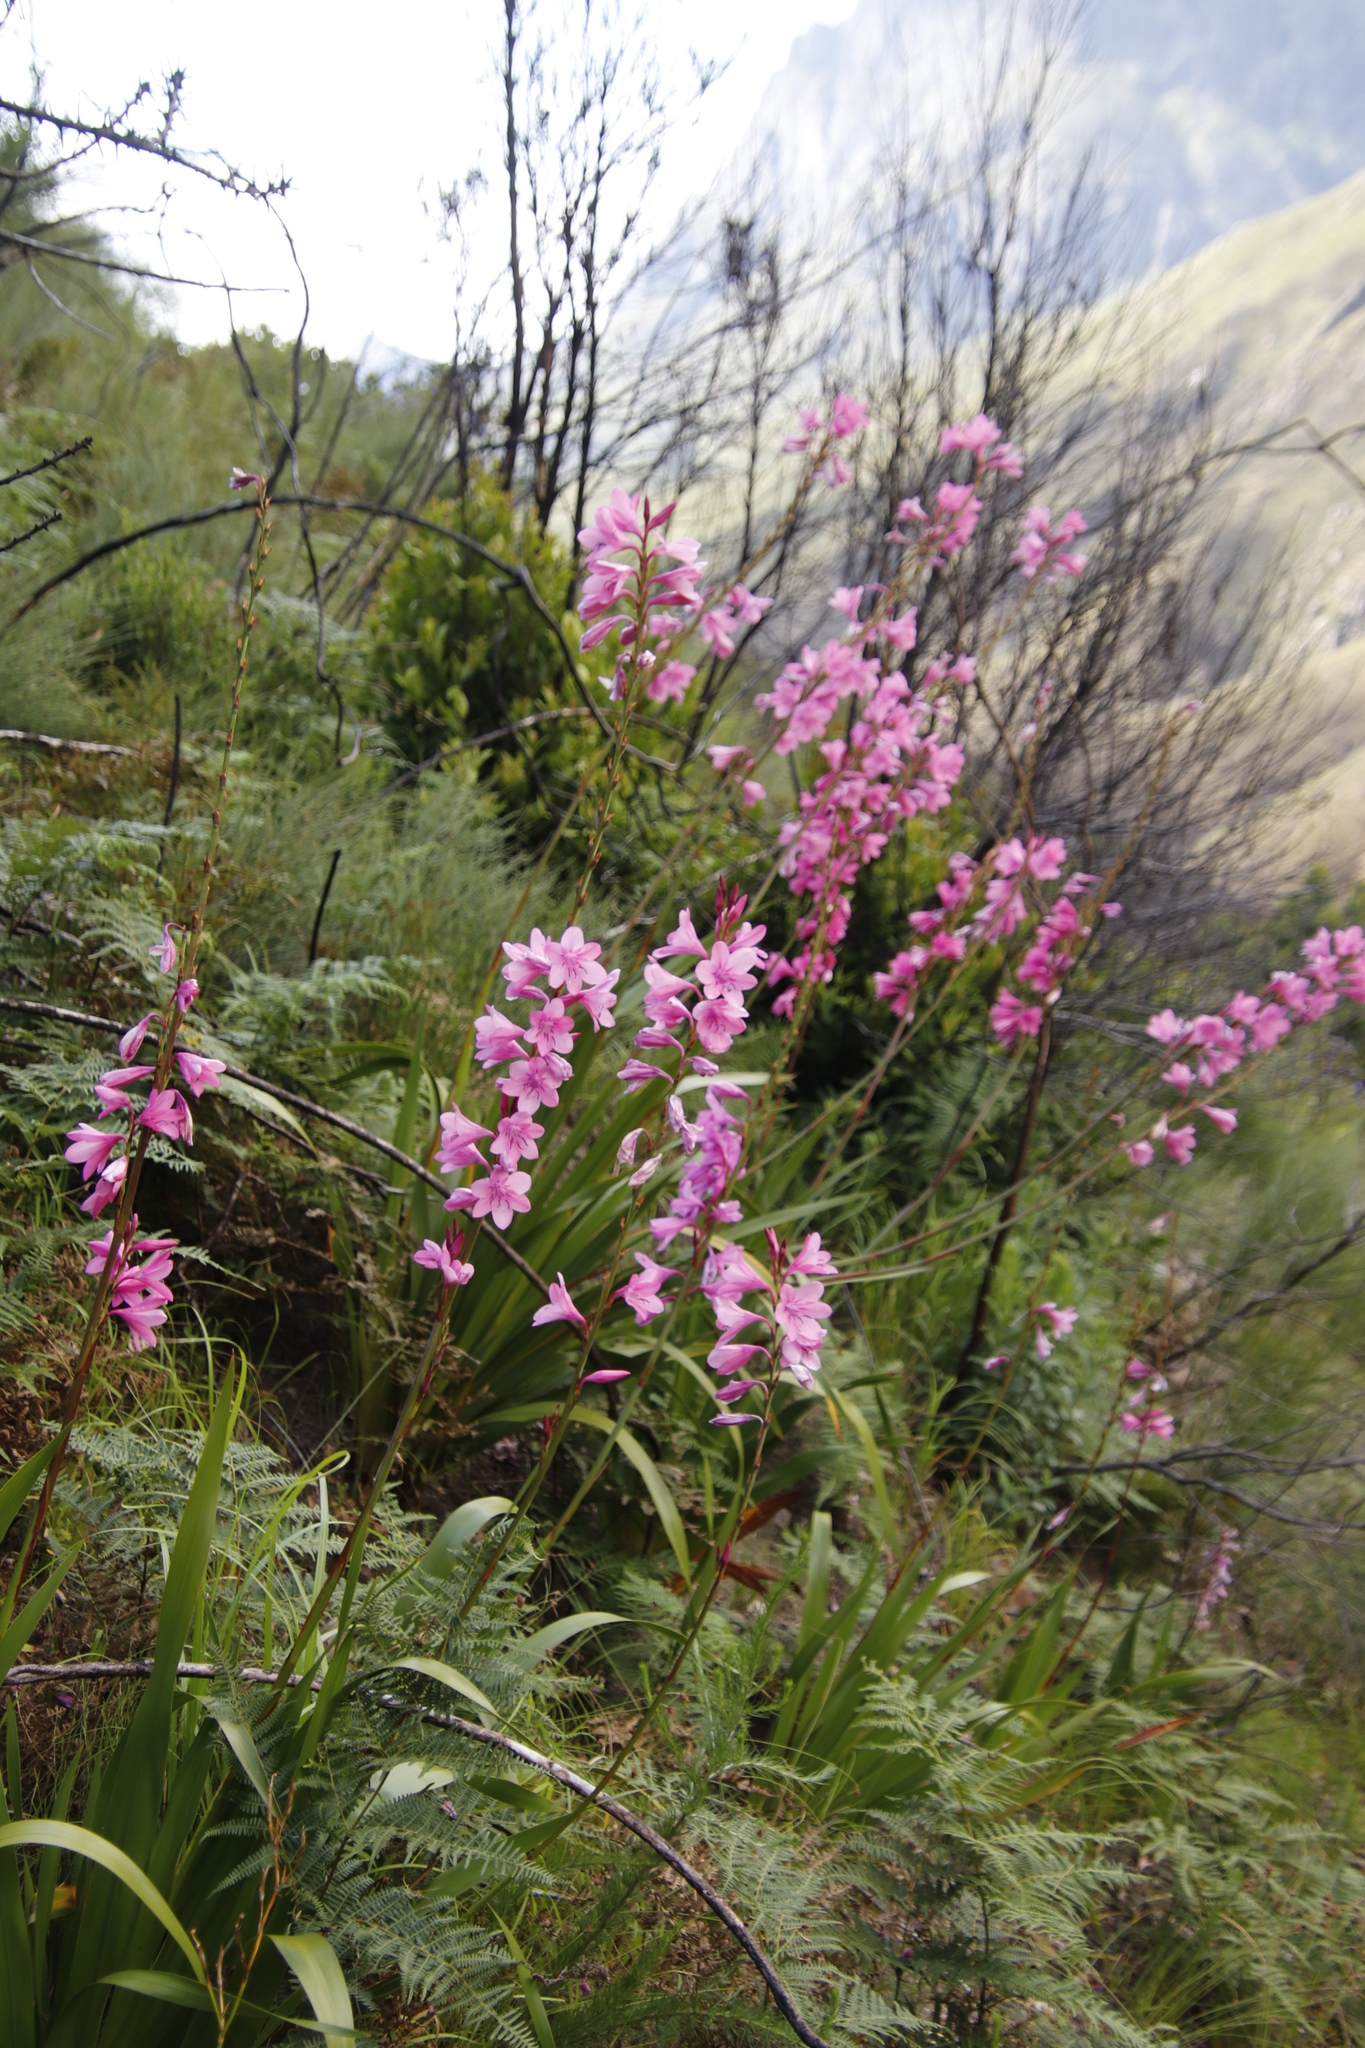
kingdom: Plantae
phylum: Tracheophyta
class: Liliopsida
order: Asparagales
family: Iridaceae
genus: Watsonia
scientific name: Watsonia borbonica
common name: Bugle-lily
